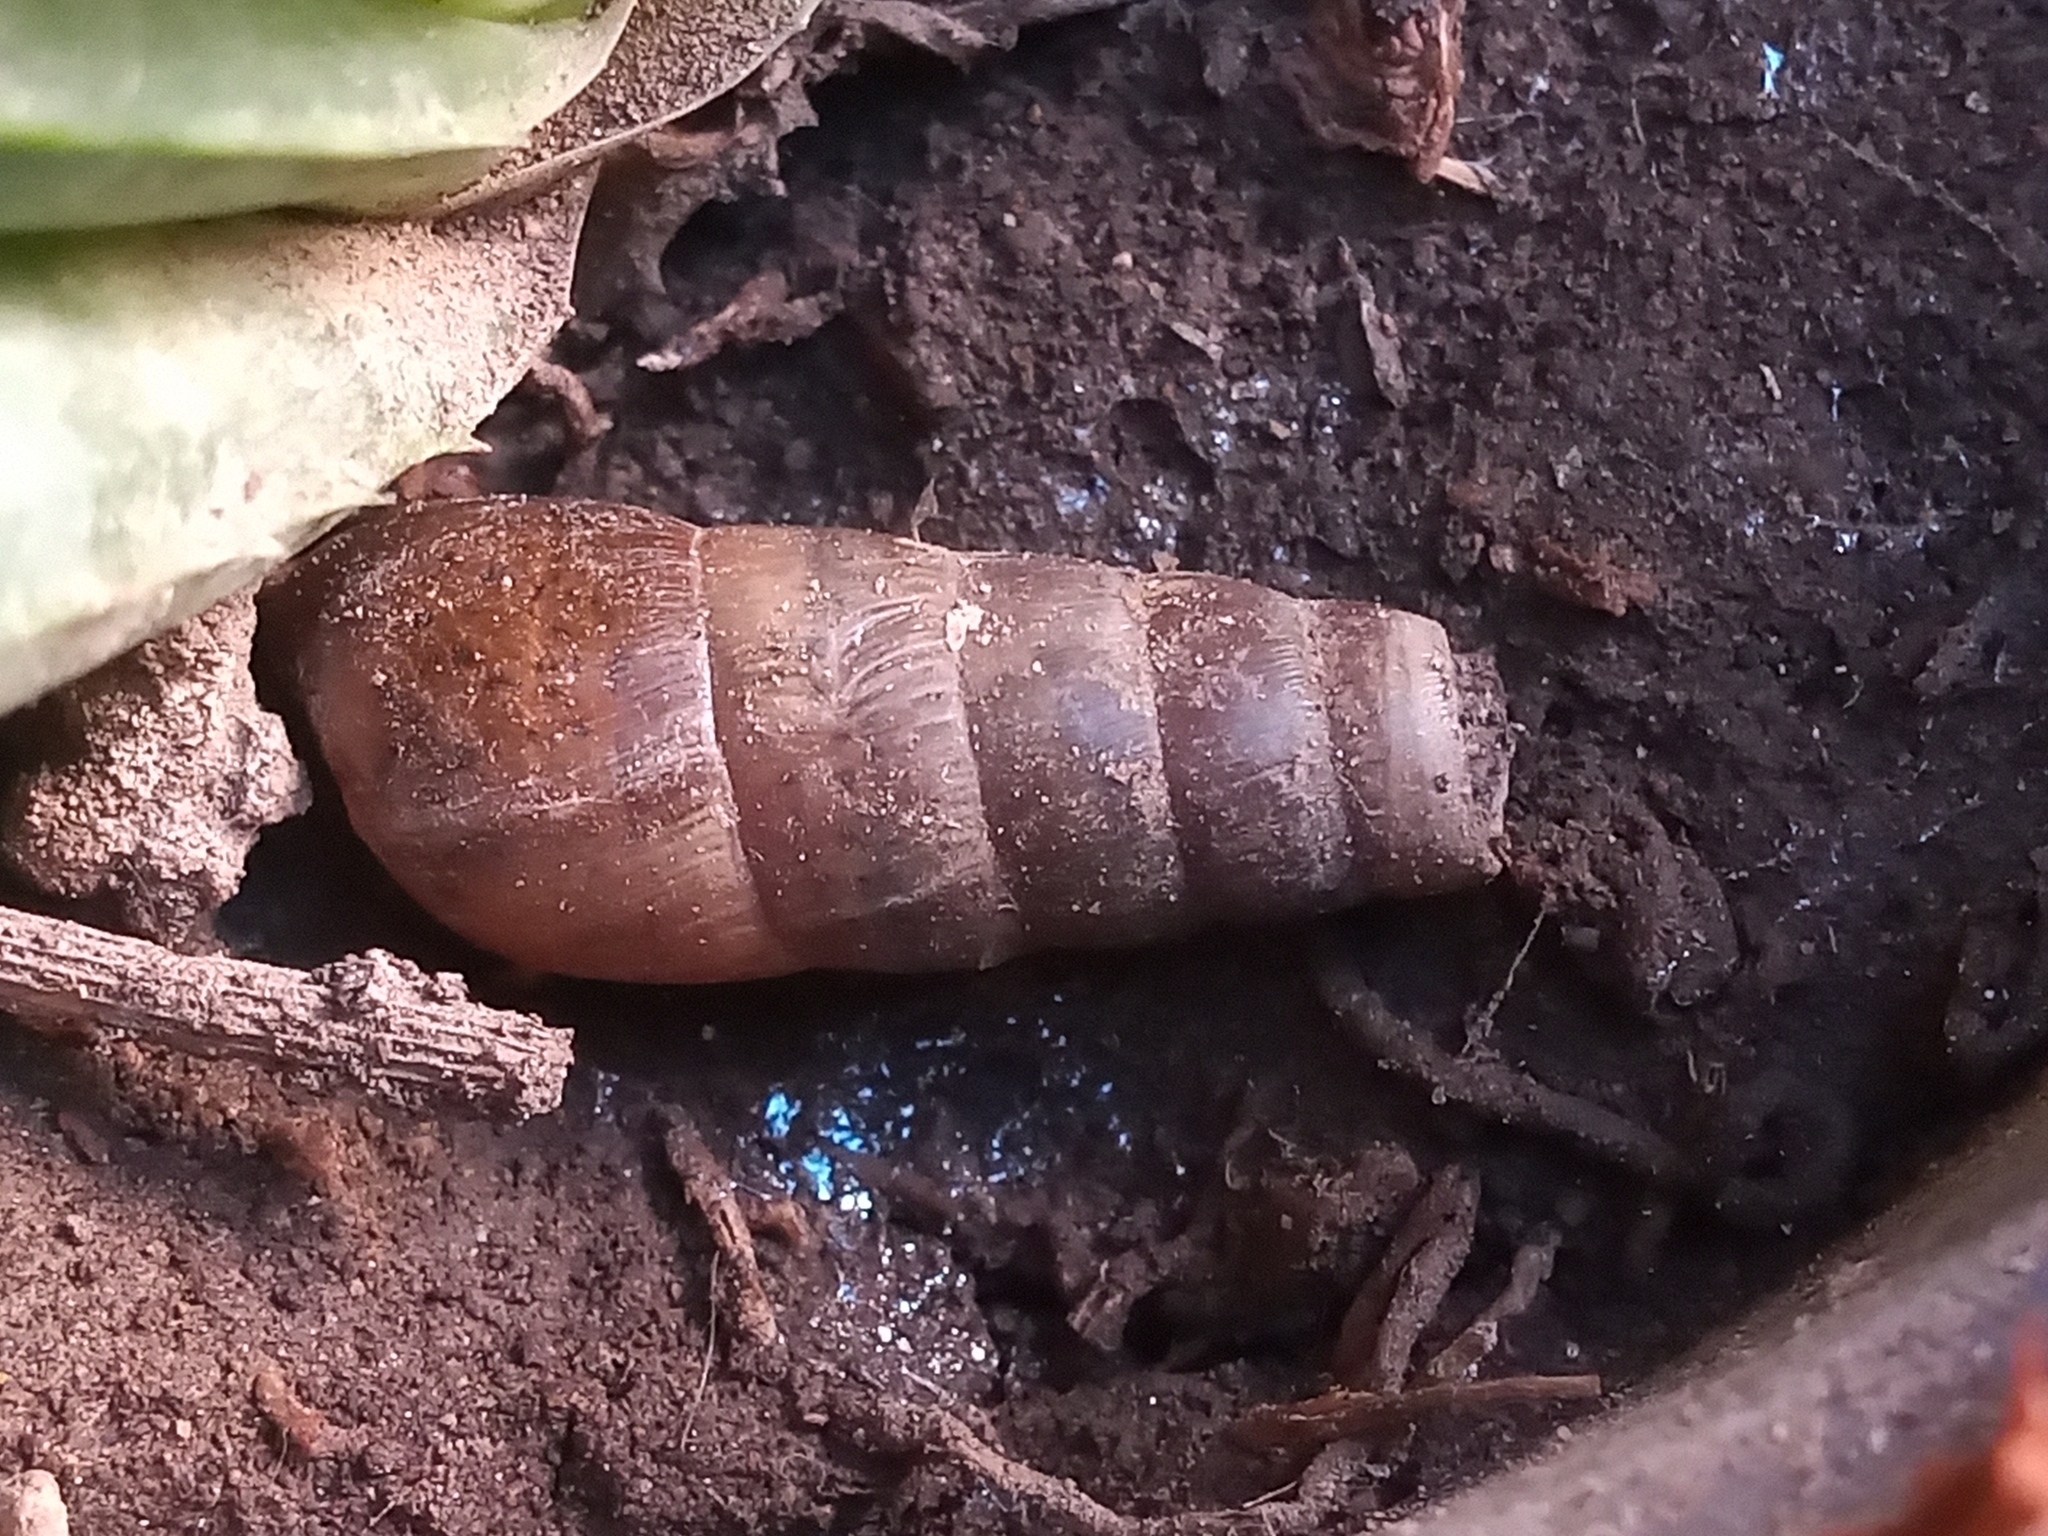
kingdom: Animalia
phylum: Mollusca
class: Gastropoda
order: Stylommatophora
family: Achatinidae
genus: Rumina
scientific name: Rumina decollata
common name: Decollate snail
